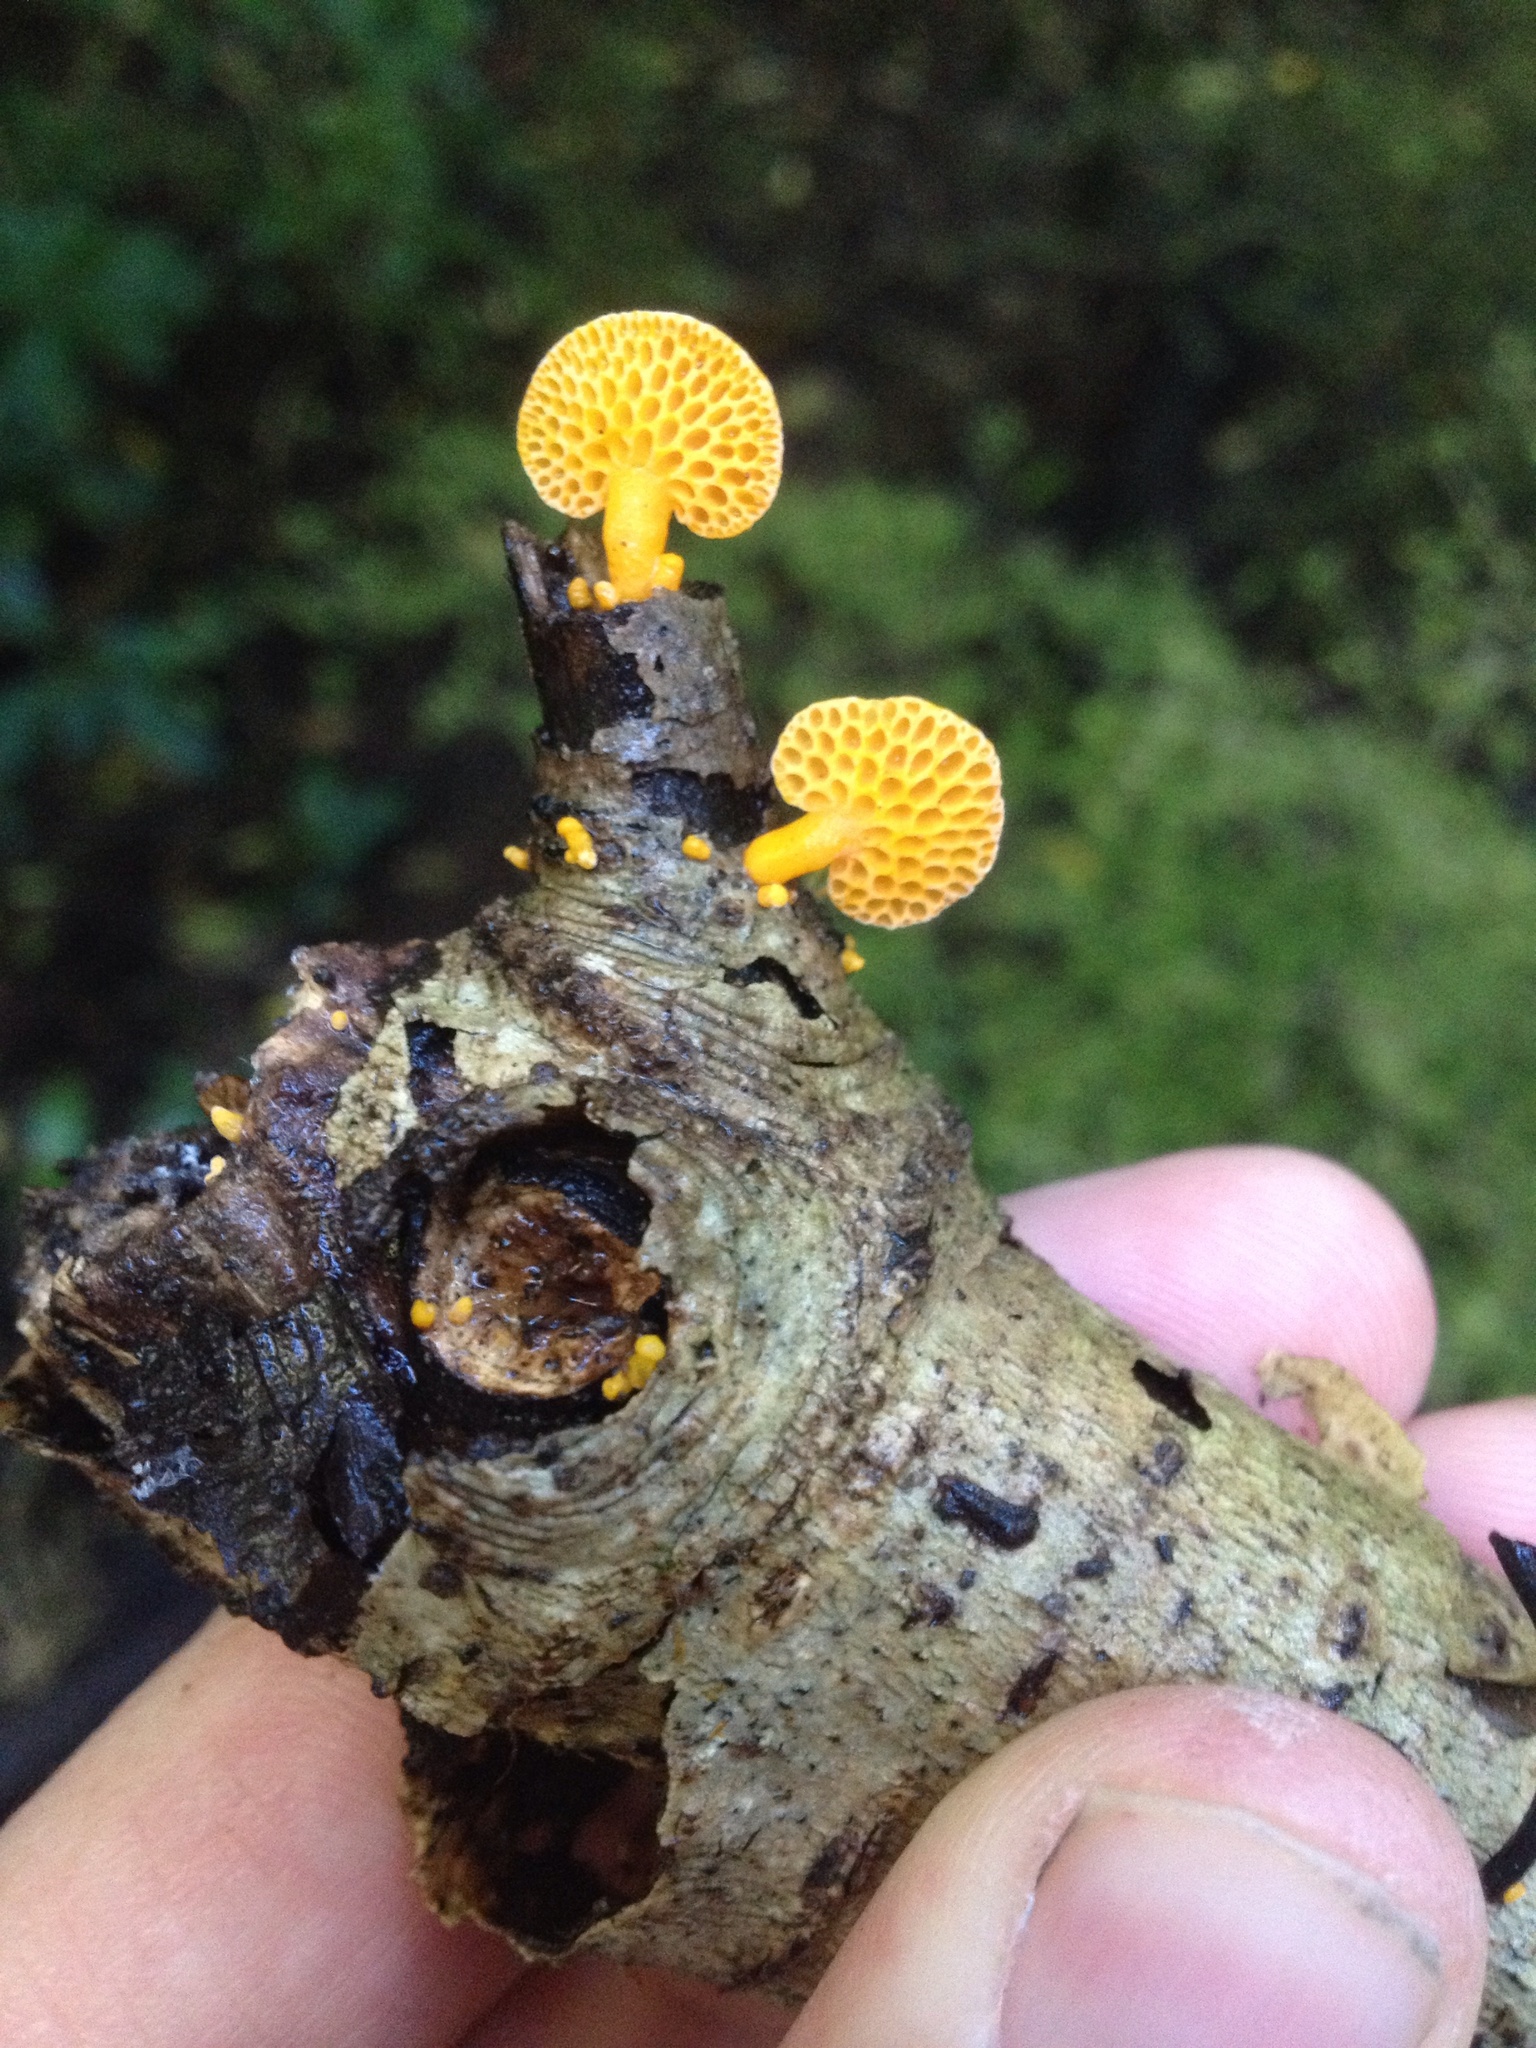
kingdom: Fungi
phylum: Basidiomycota
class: Agaricomycetes
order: Agaricales
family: Mycenaceae
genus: Favolaschia
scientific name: Favolaschia claudopus
